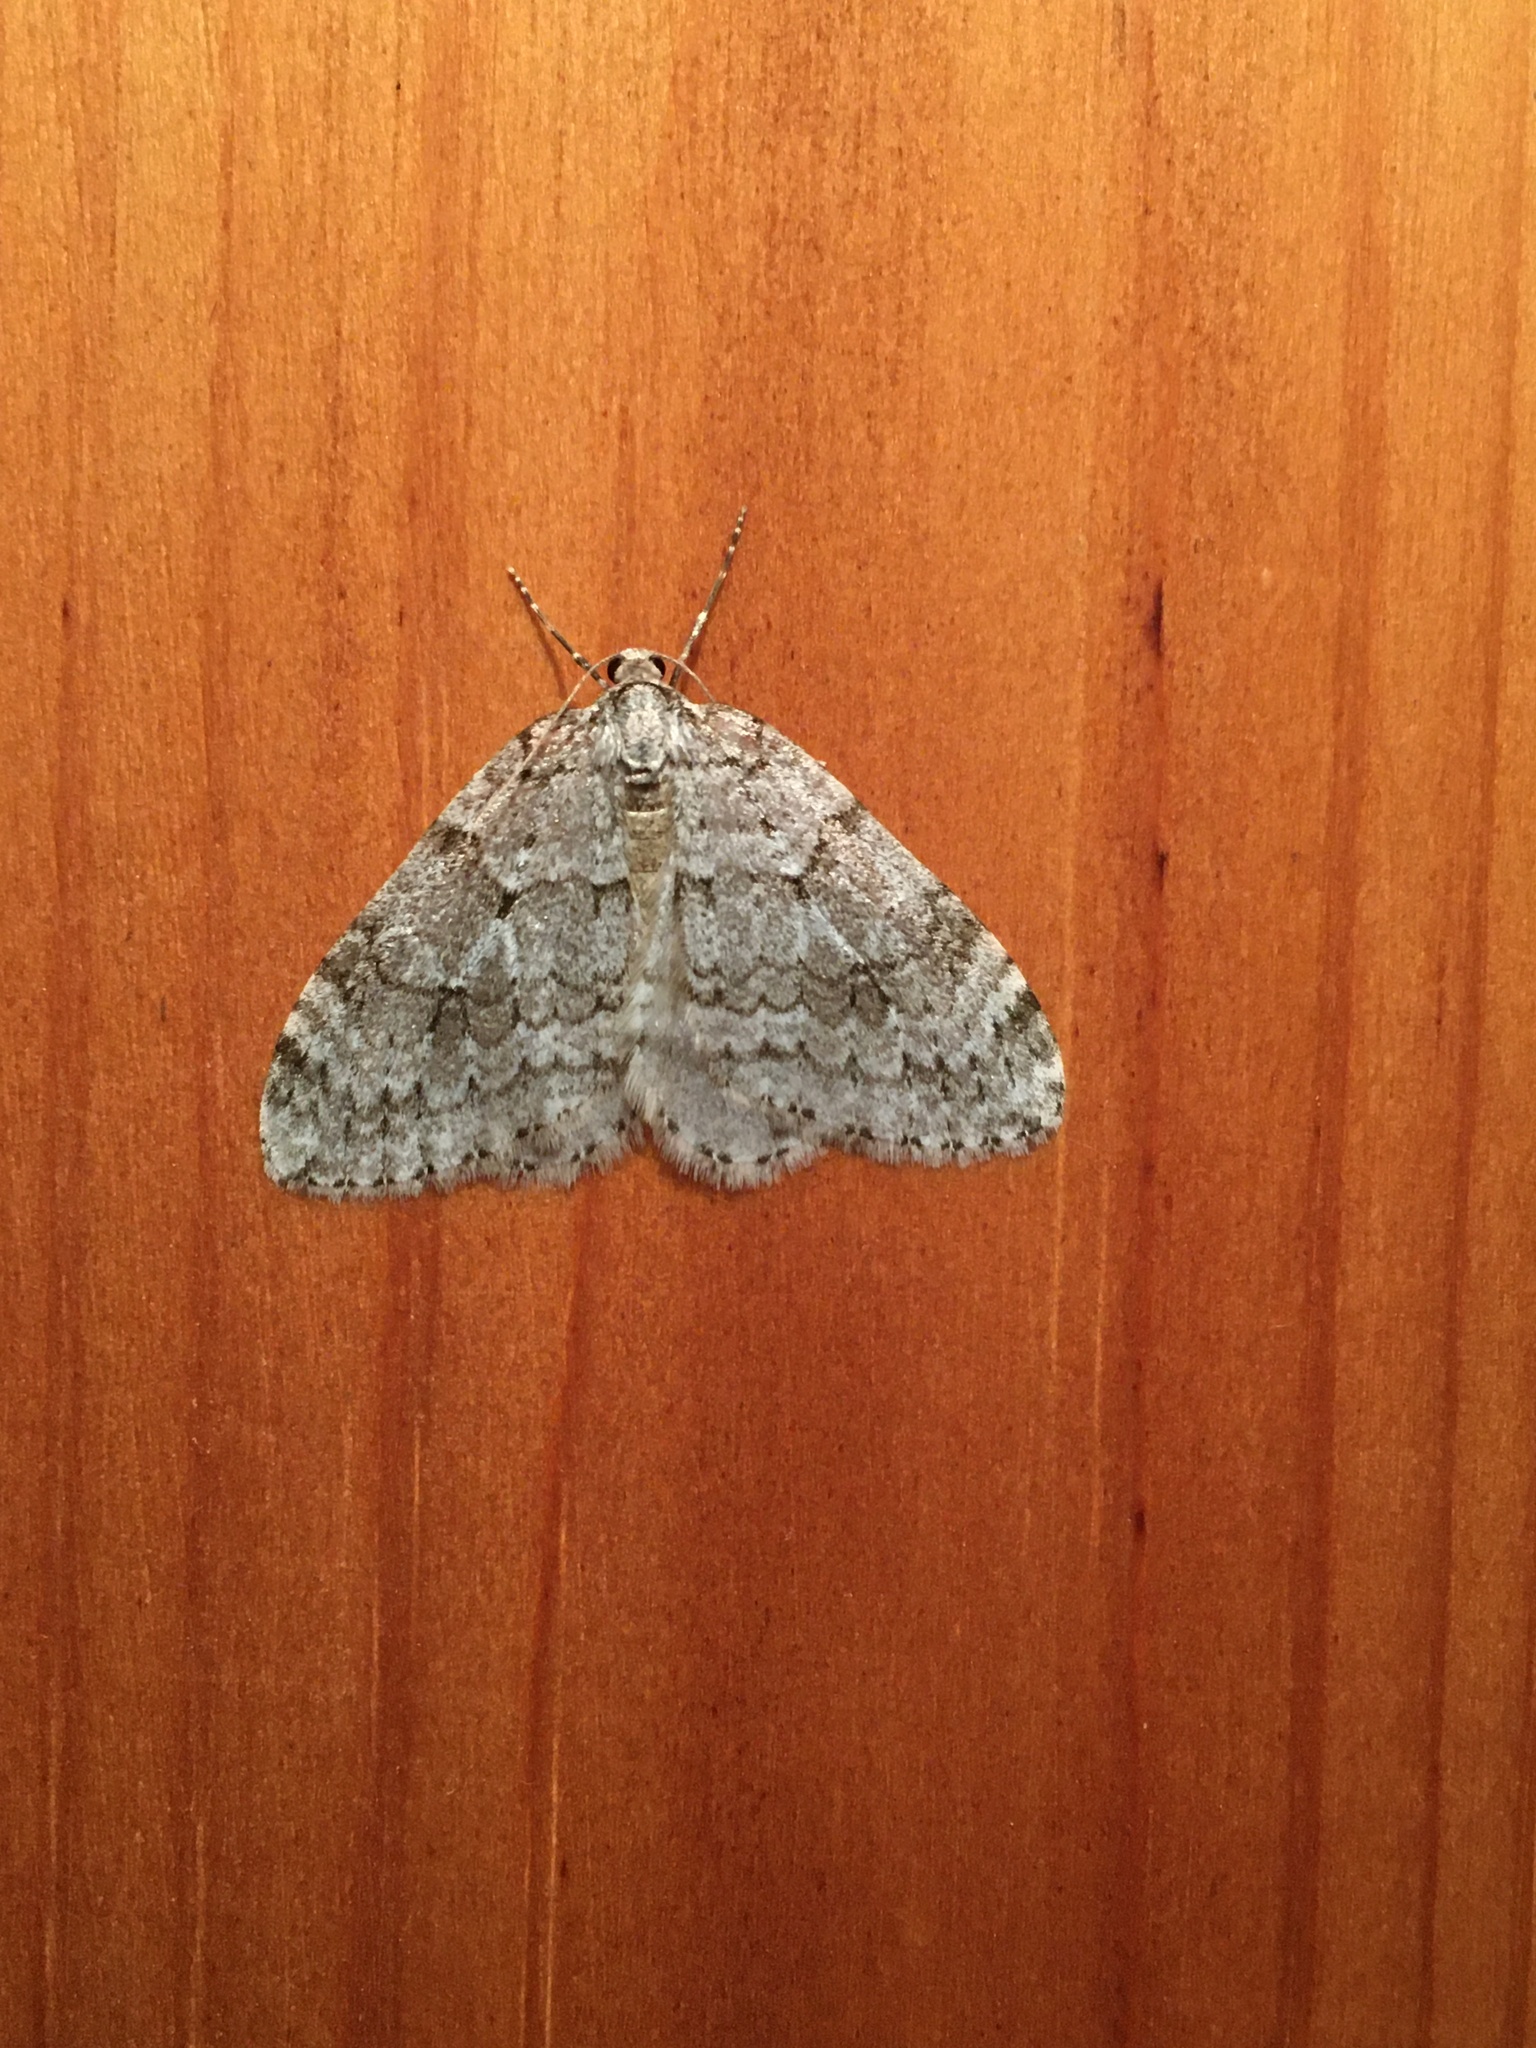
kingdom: Animalia
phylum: Arthropoda
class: Insecta
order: Lepidoptera
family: Geometridae
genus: Epirrita
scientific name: Epirrita autumnata
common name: Autumnal moth
